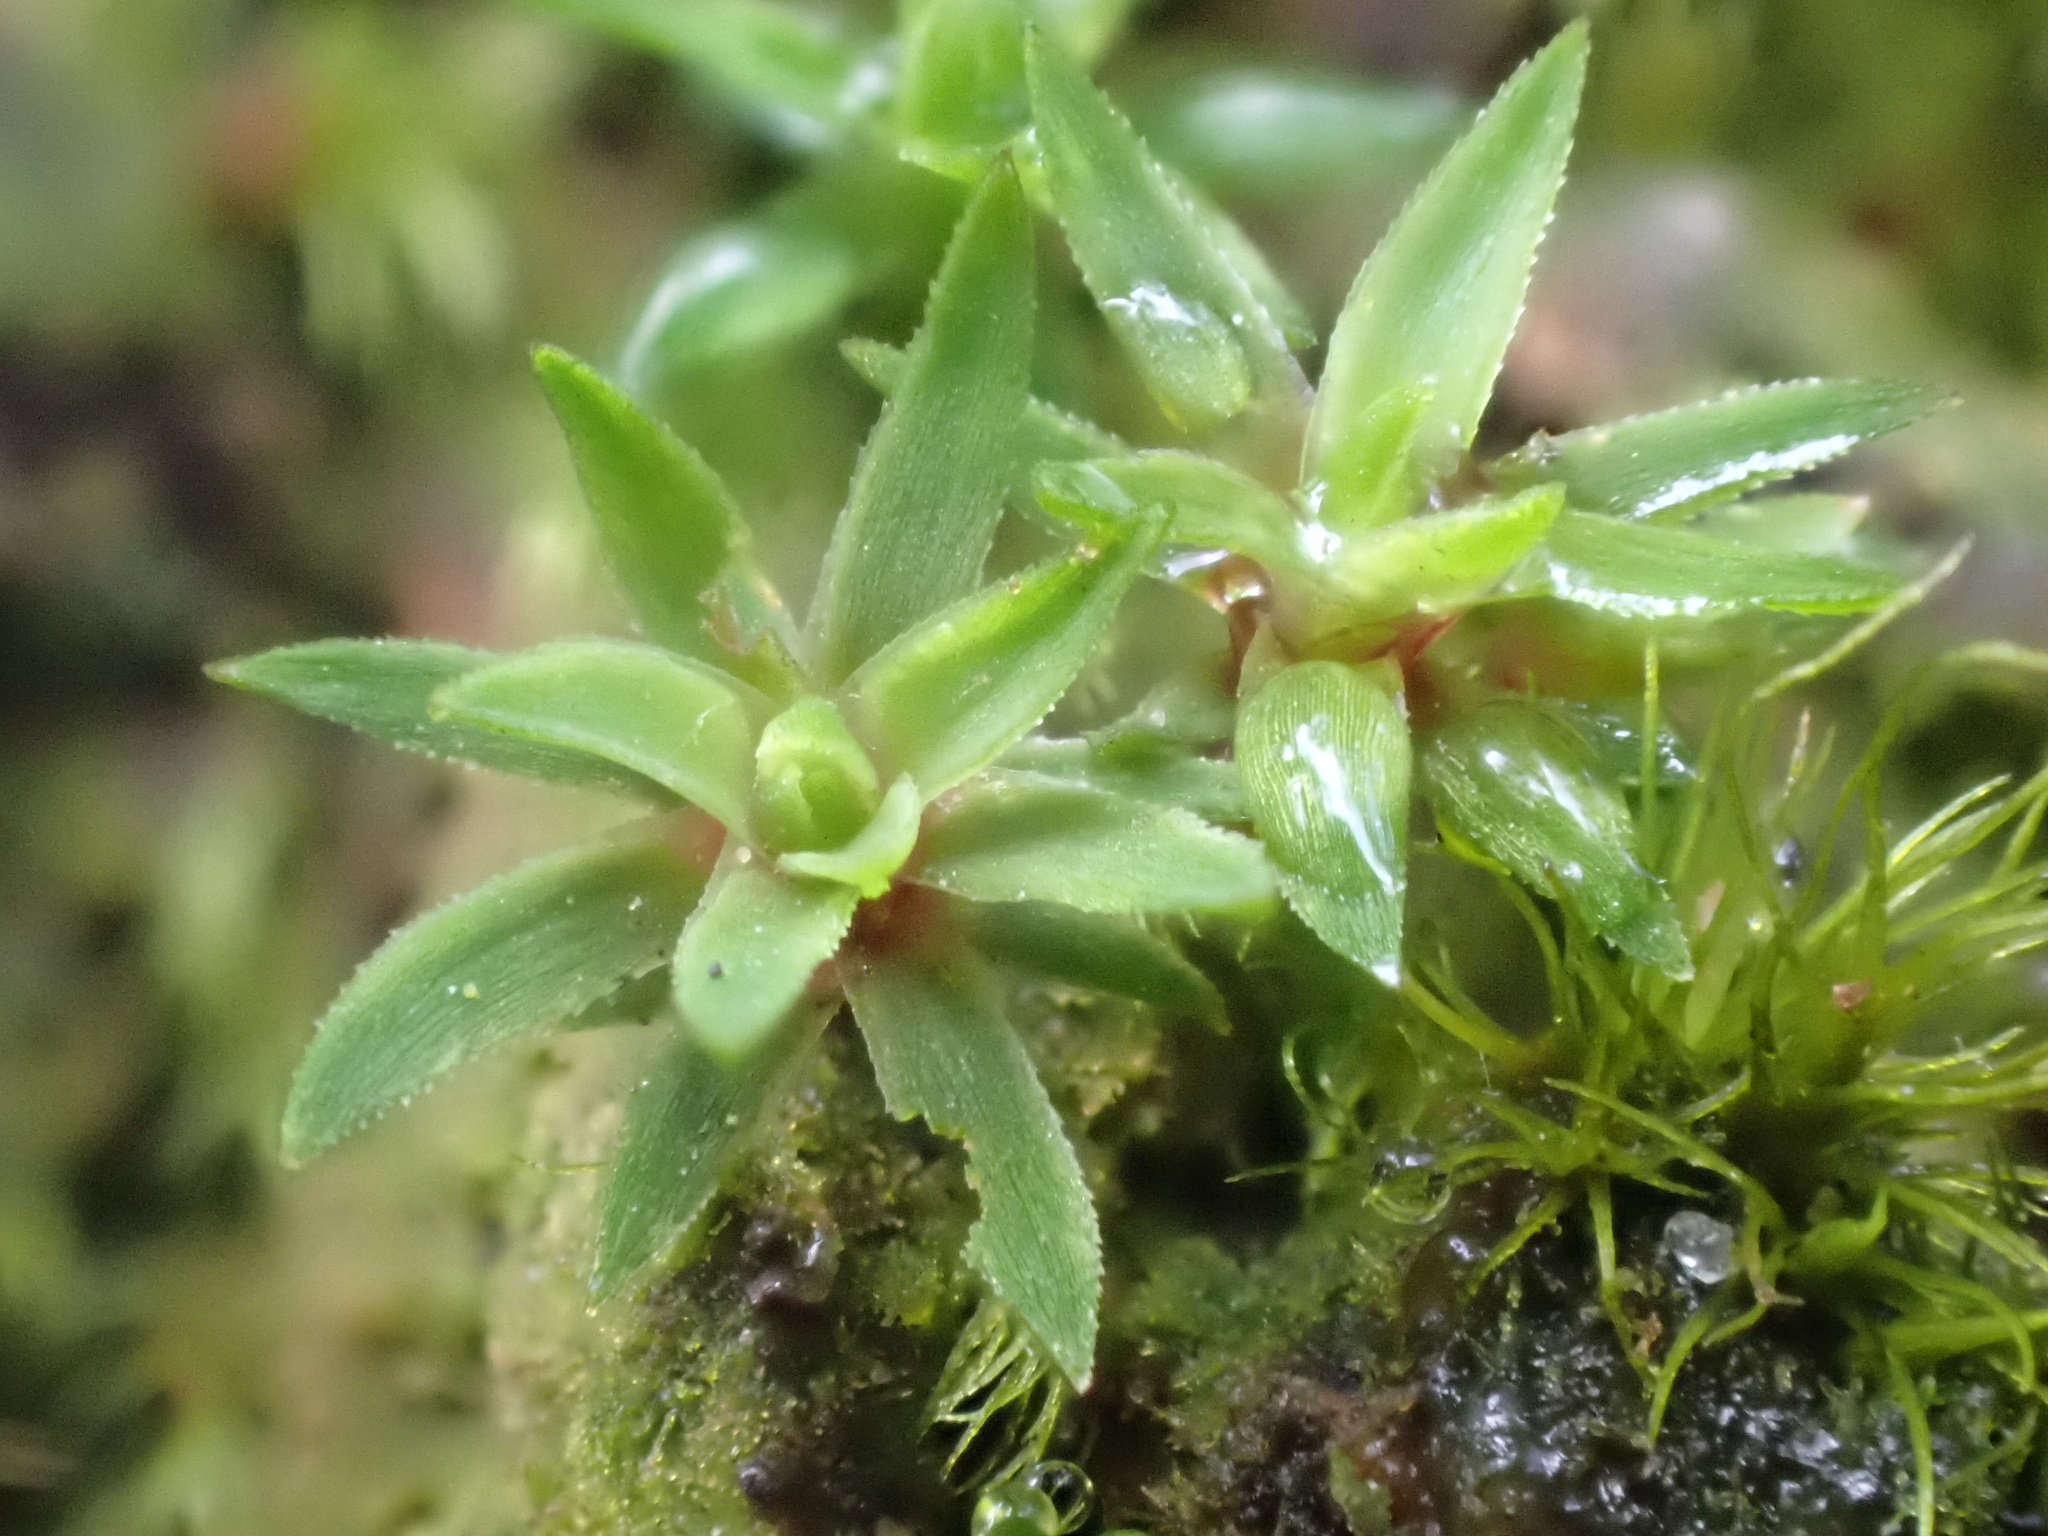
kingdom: Plantae
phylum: Bryophyta
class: Polytrichopsida
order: Polytrichales
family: Polytrichaceae
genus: Pogonatum
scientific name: Pogonatum aloides
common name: Aloe haircap
